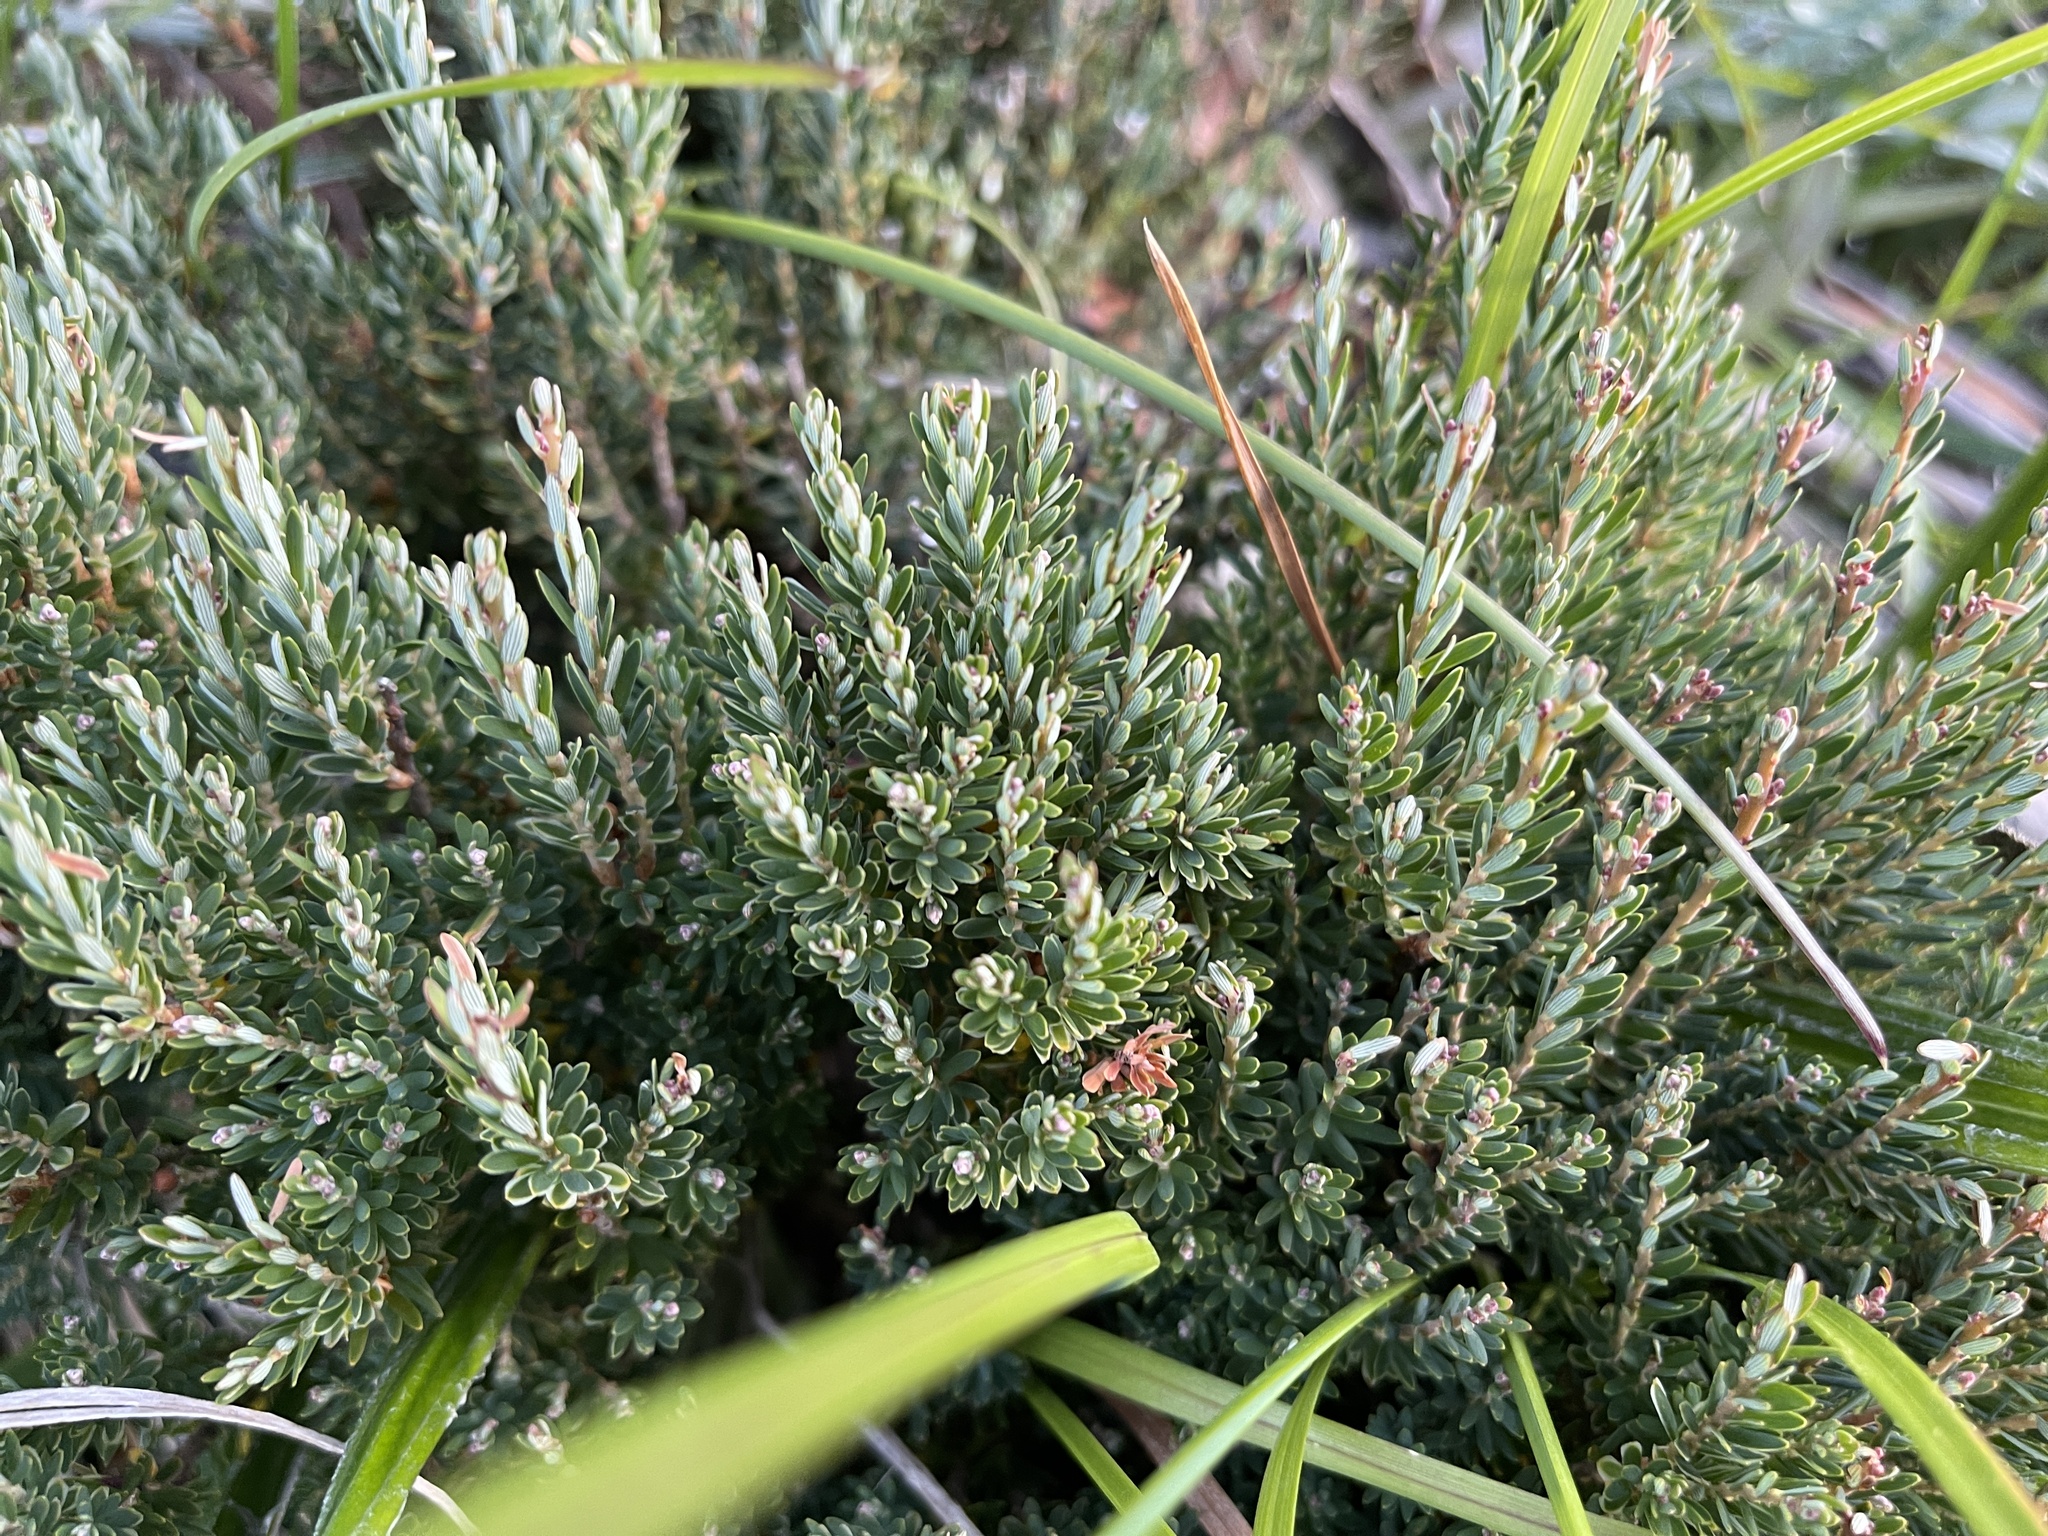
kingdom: Plantae
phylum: Tracheophyta
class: Magnoliopsida
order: Ericales
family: Ericaceae
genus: Acrothamnus
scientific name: Acrothamnus montanus
